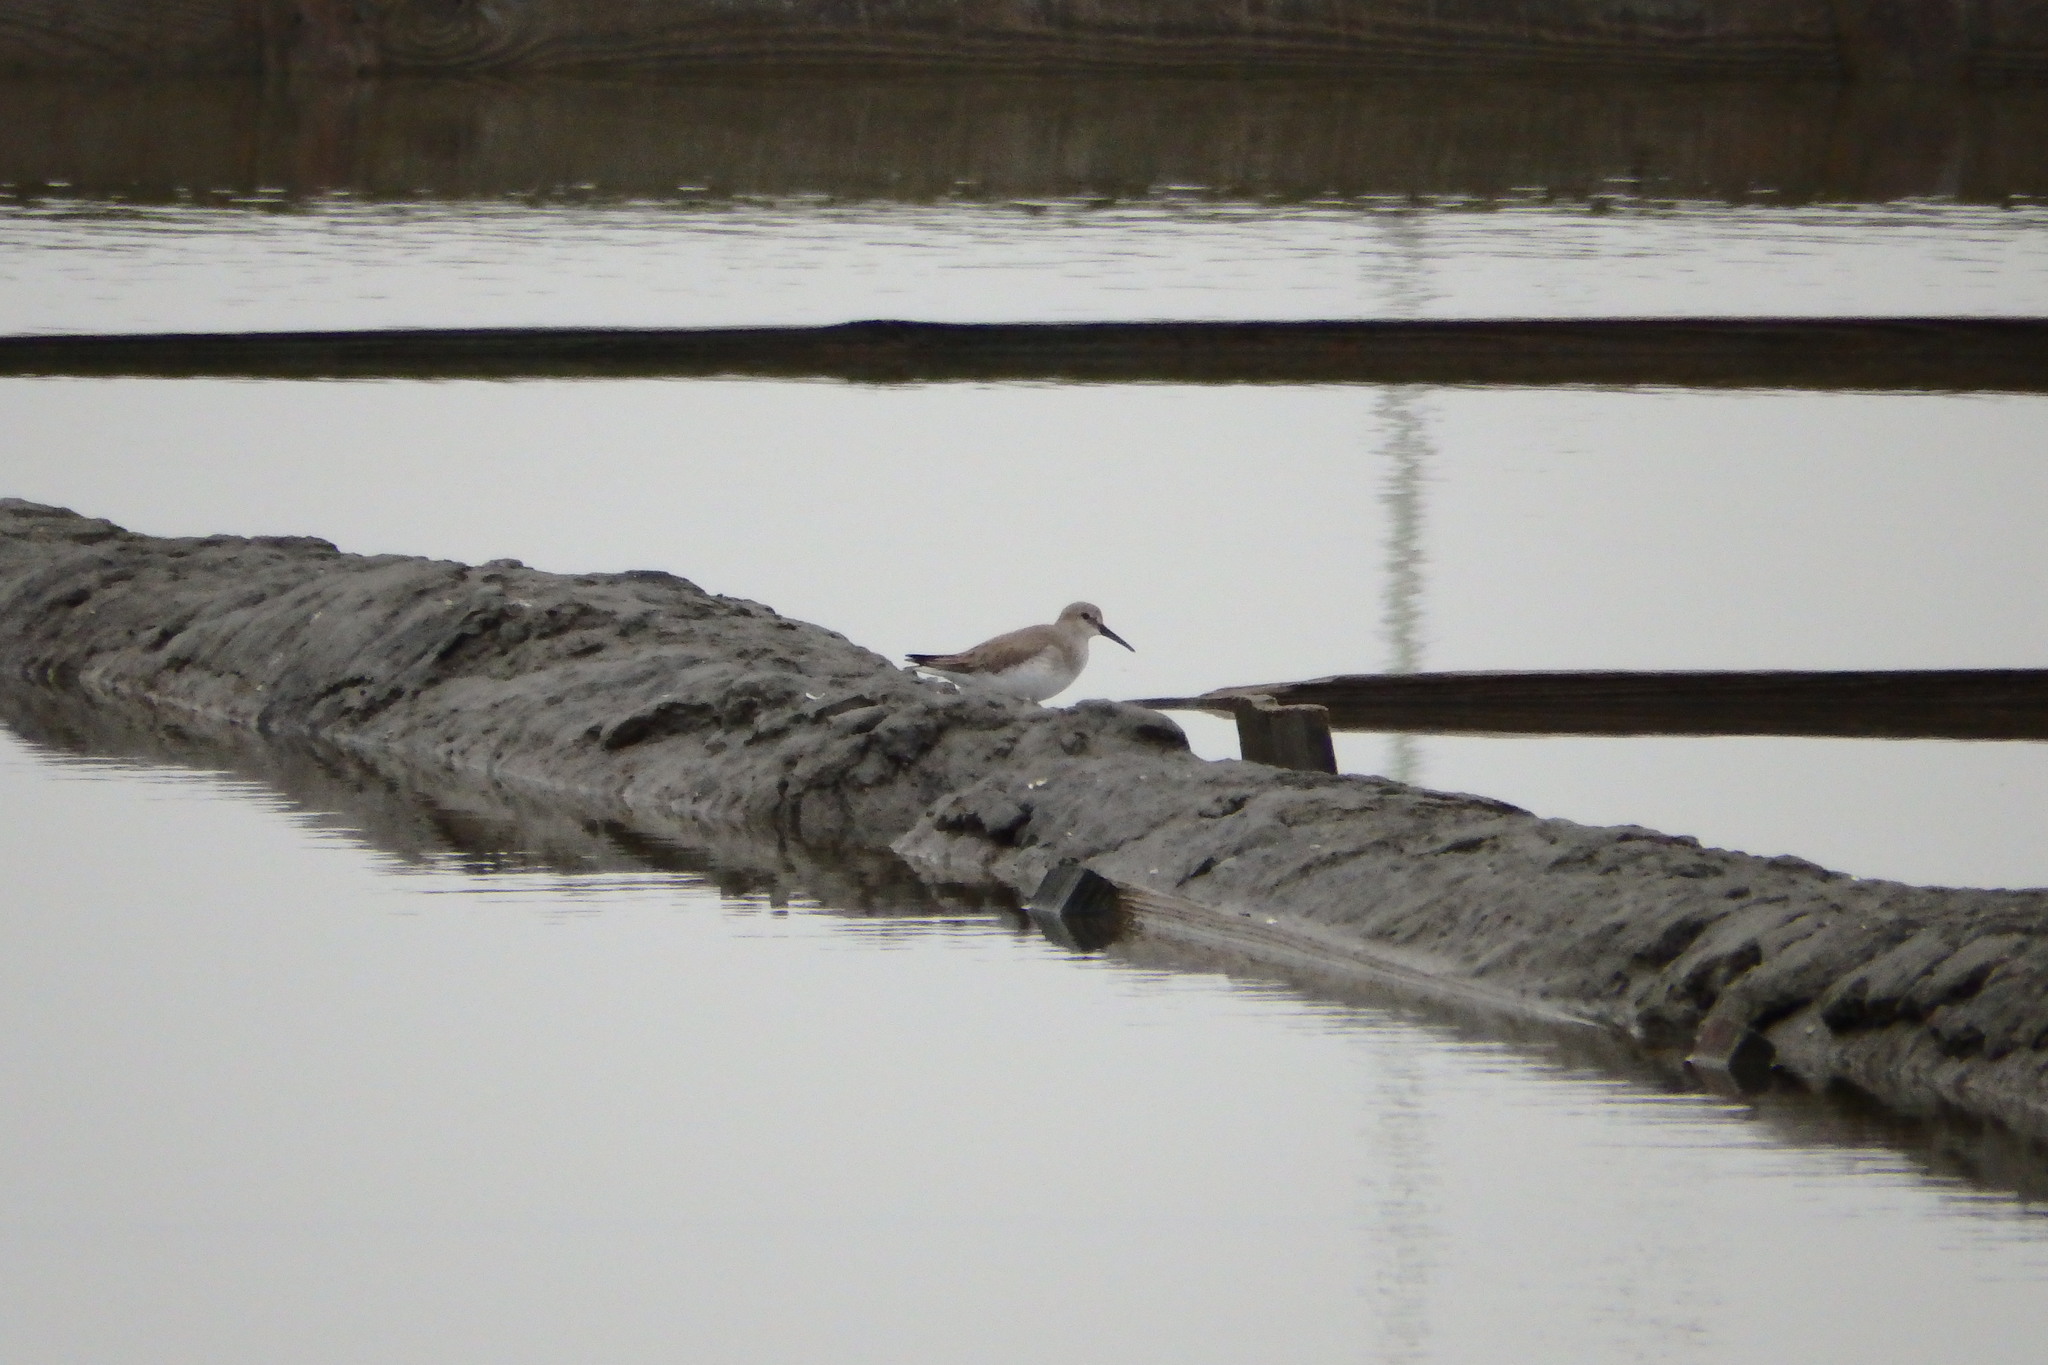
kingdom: Animalia
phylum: Chordata
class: Aves
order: Charadriiformes
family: Scolopacidae
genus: Calidris
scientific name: Calidris alpina
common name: Dunlin
